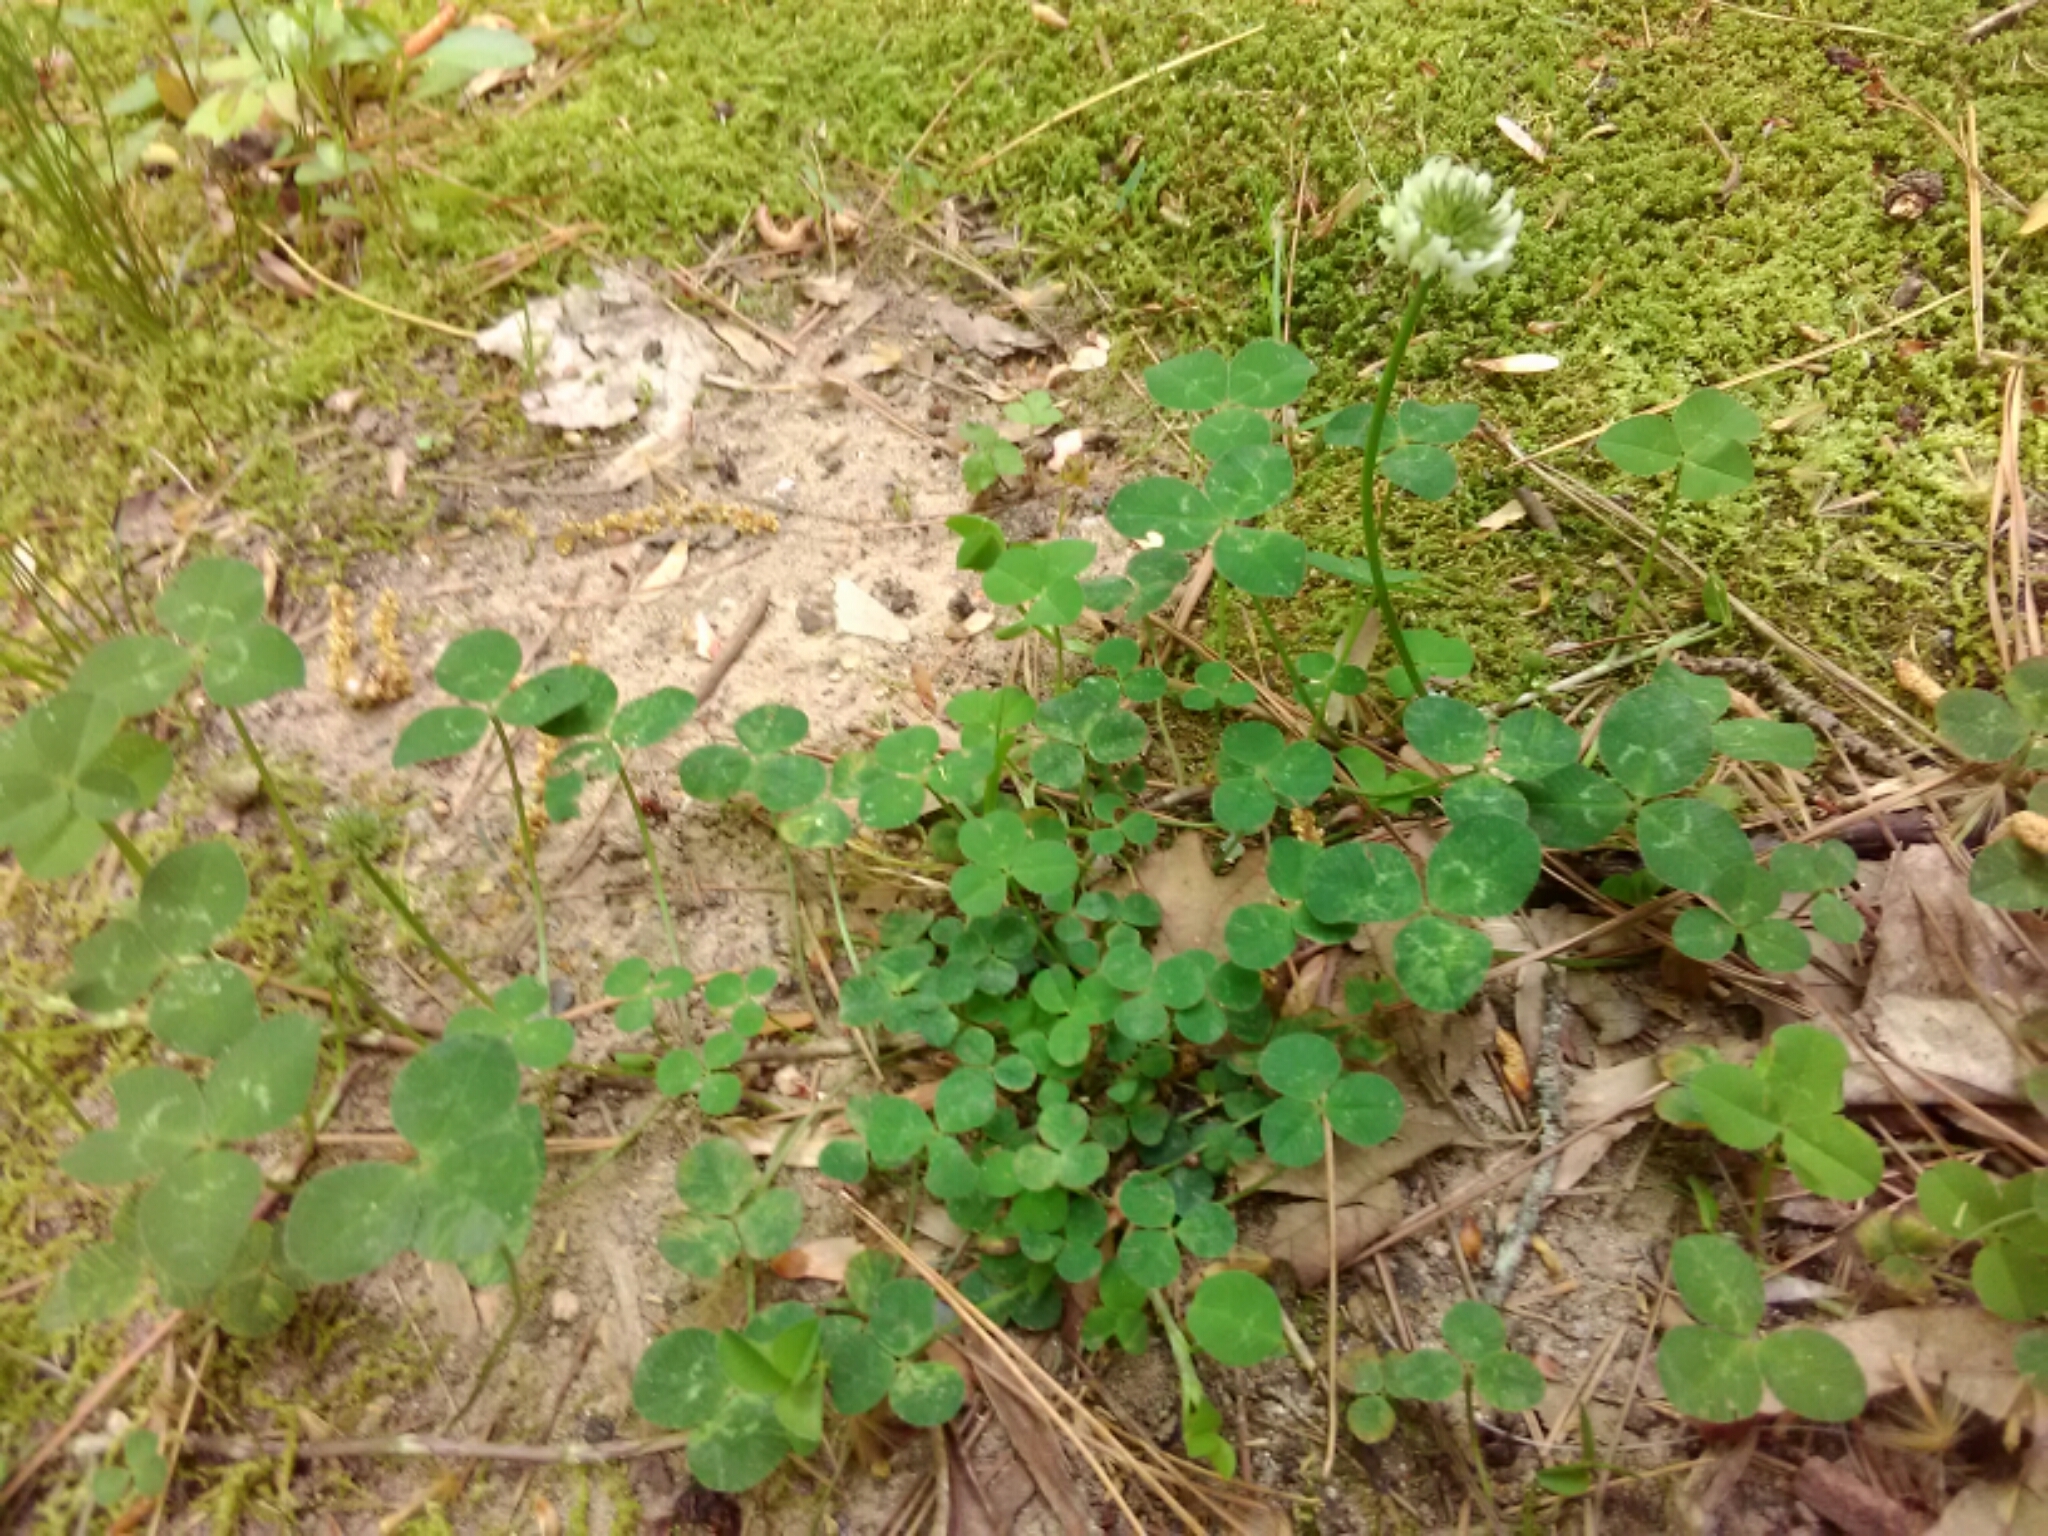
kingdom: Plantae
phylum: Tracheophyta
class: Magnoliopsida
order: Fabales
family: Fabaceae
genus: Trifolium
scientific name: Trifolium repens
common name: White clover
